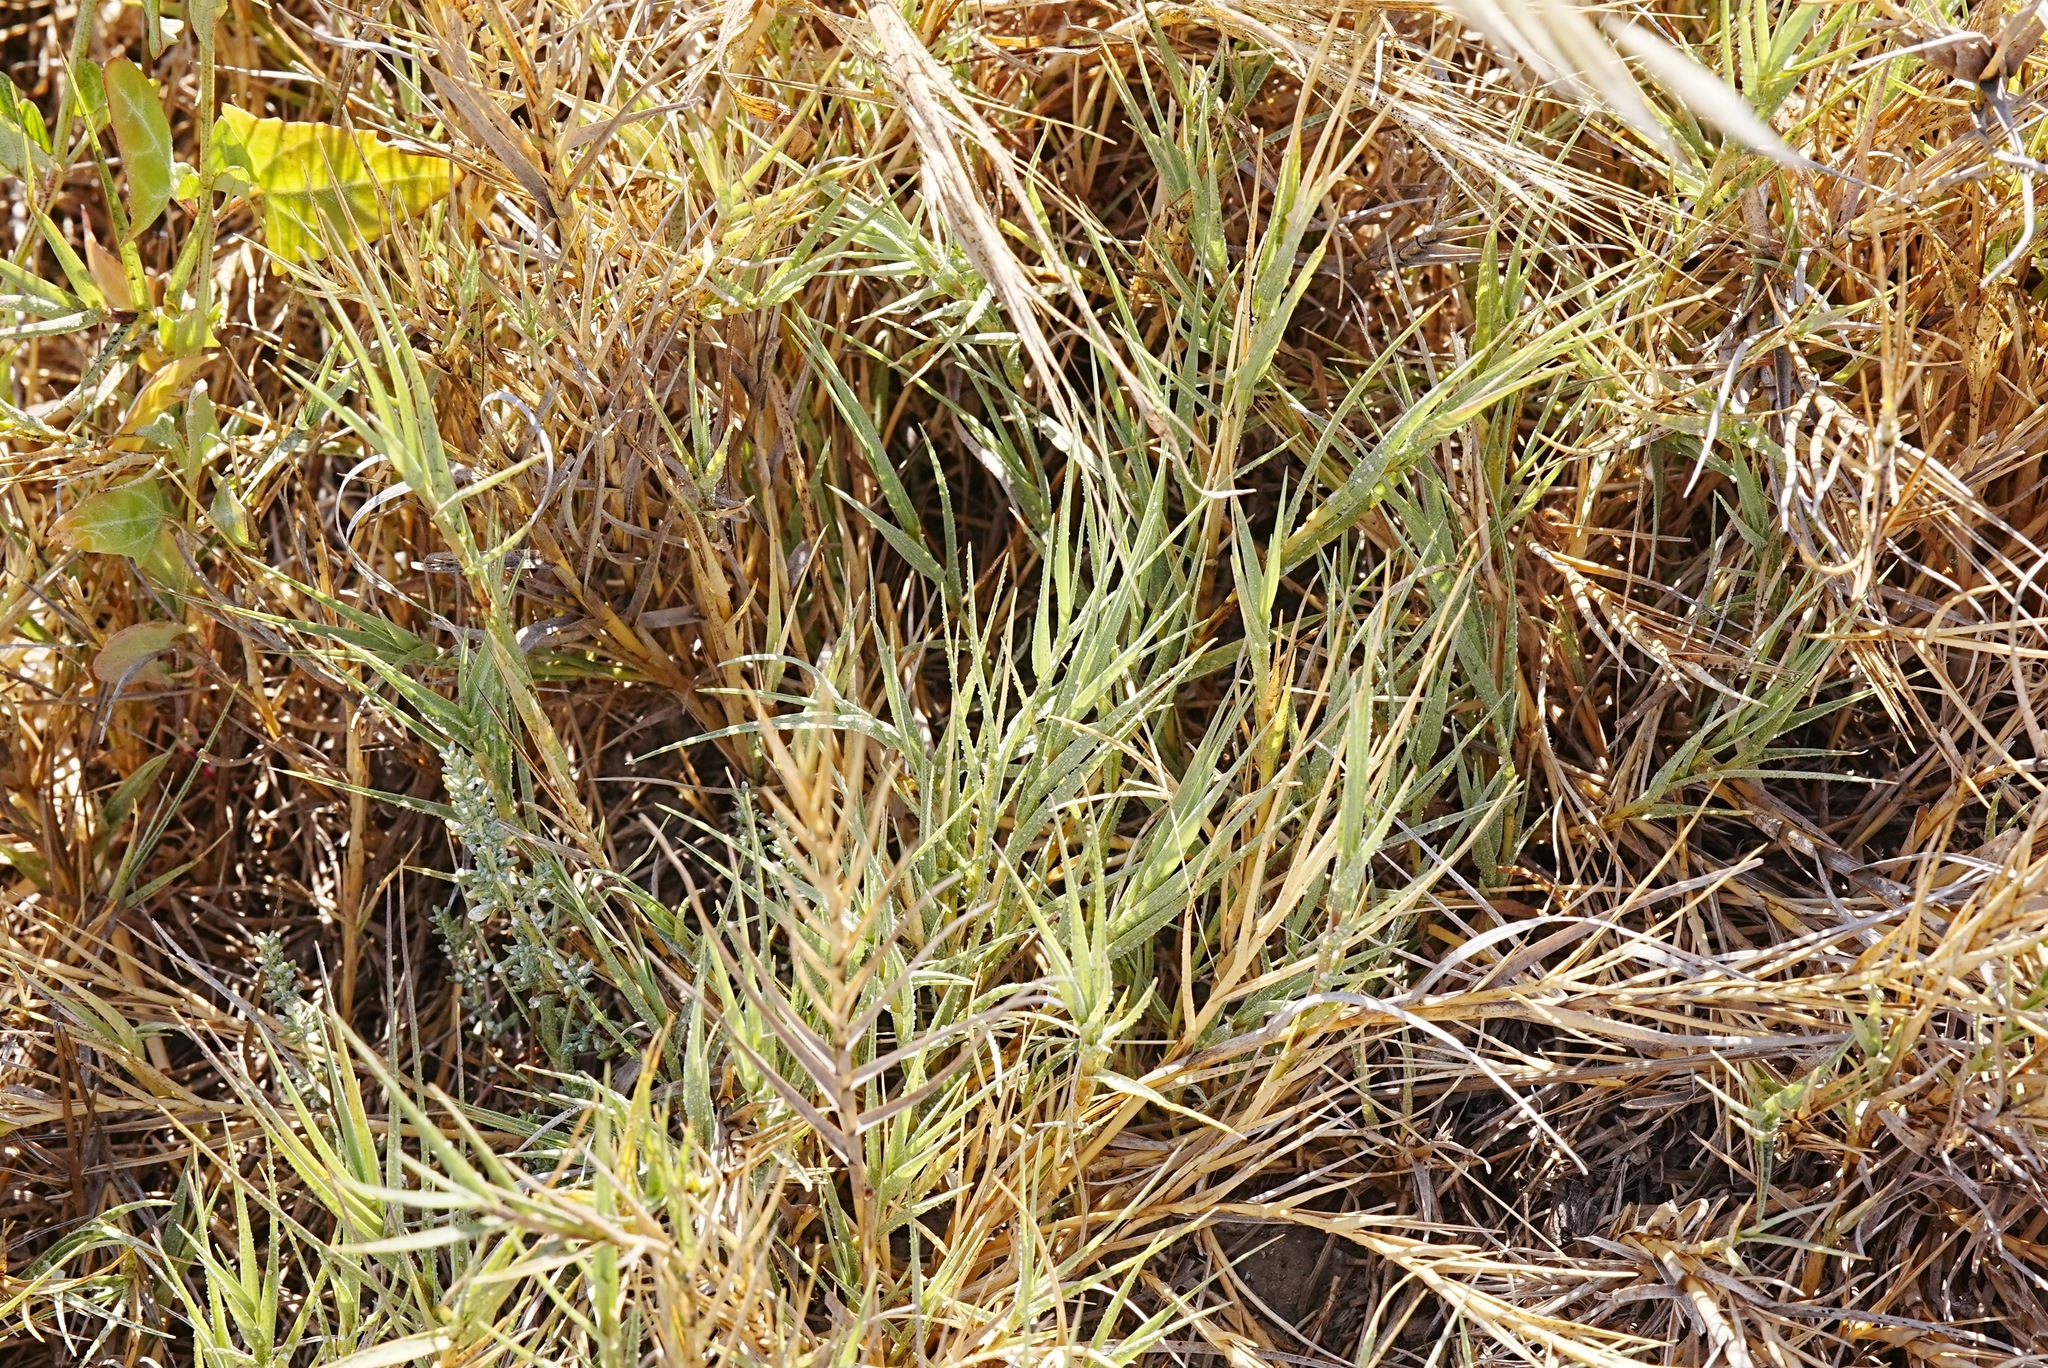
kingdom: Plantae
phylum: Tracheophyta
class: Liliopsida
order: Poales
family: Poaceae
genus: Distichlis
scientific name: Distichlis spicata
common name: Saltgrass
